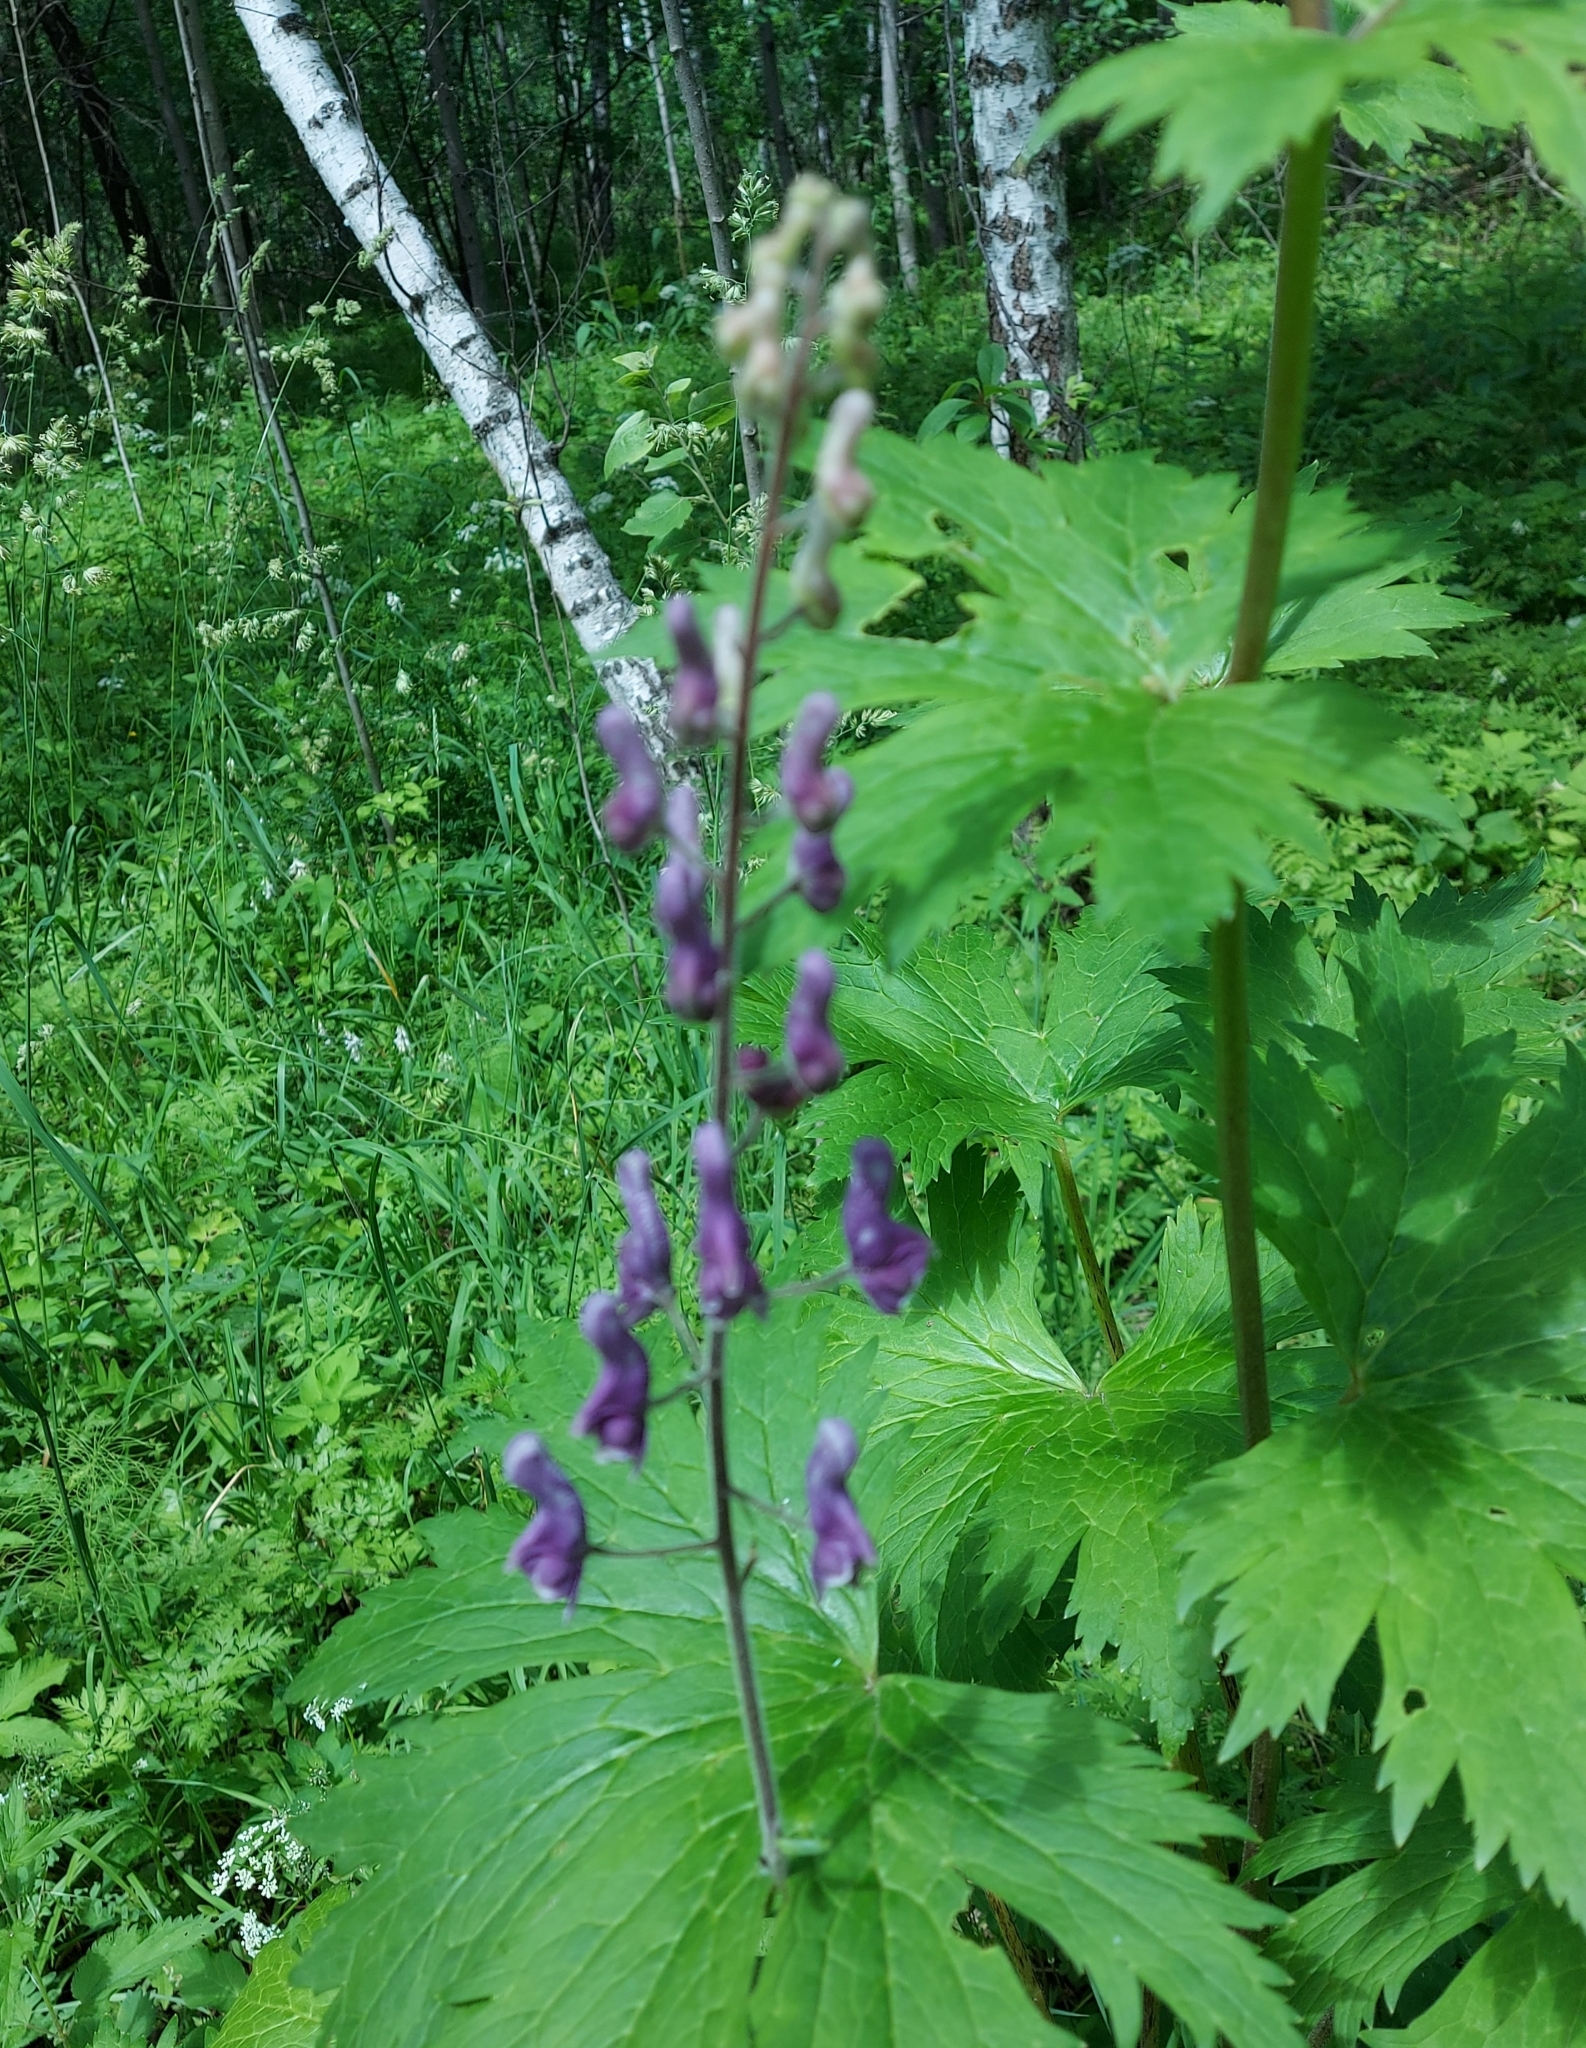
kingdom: Plantae
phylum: Tracheophyta
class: Magnoliopsida
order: Ranunculales
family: Ranunculaceae
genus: Aconitum
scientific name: Aconitum septentrionale
